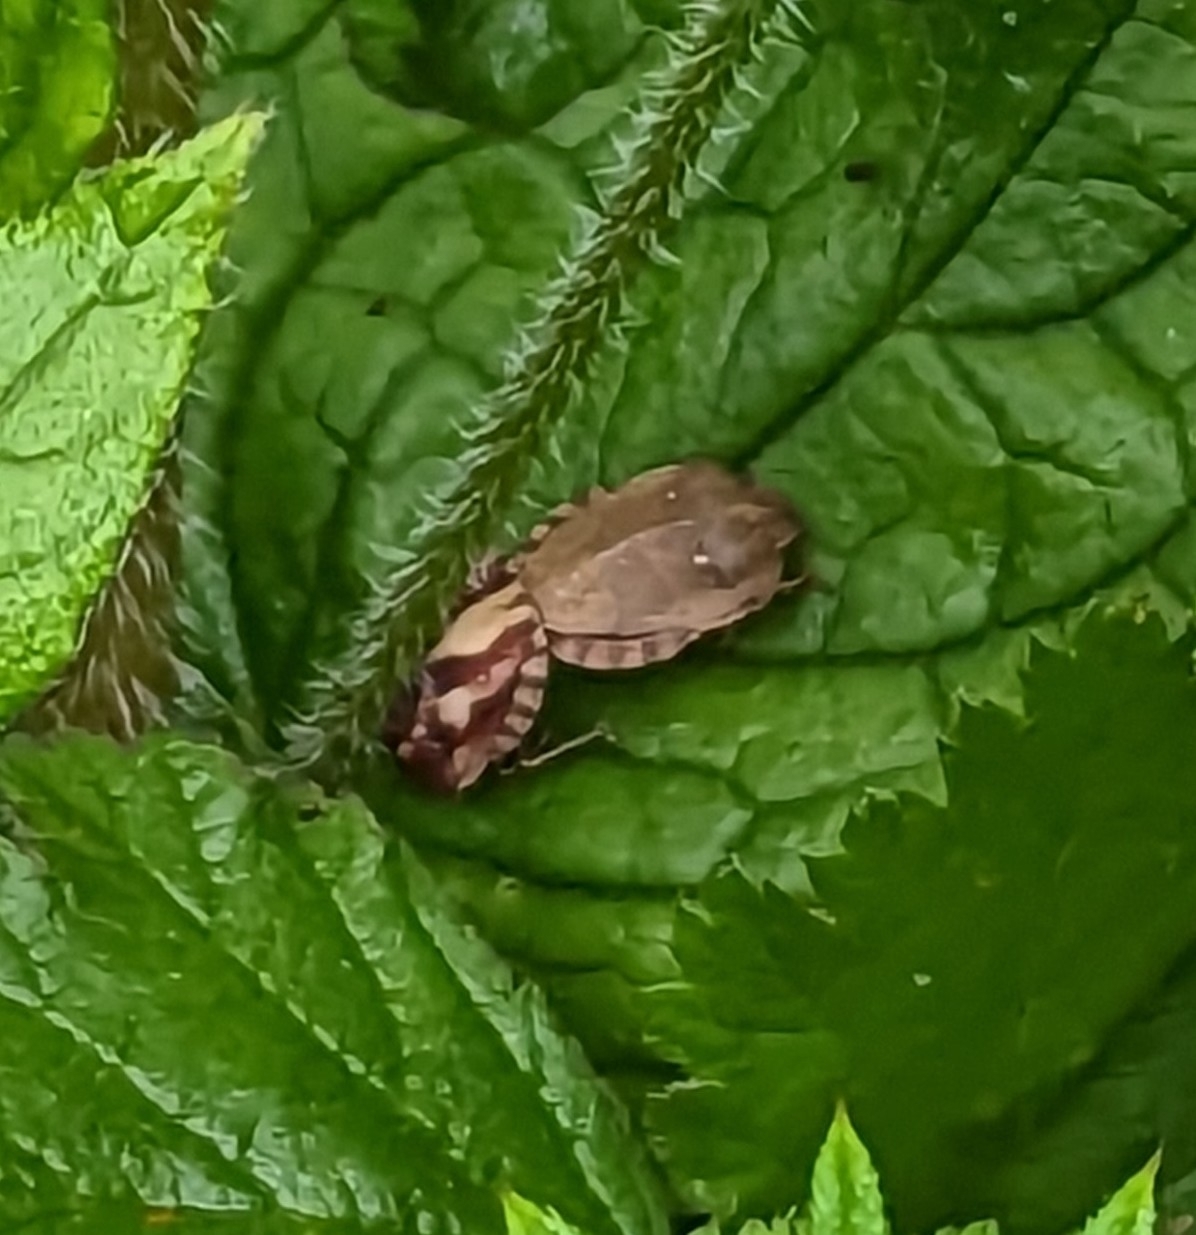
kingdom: Animalia
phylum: Arthropoda
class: Insecta
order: Hemiptera
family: Scutelleridae
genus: Eurygaster
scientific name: Eurygaster testudinaria
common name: Tortoise bug
